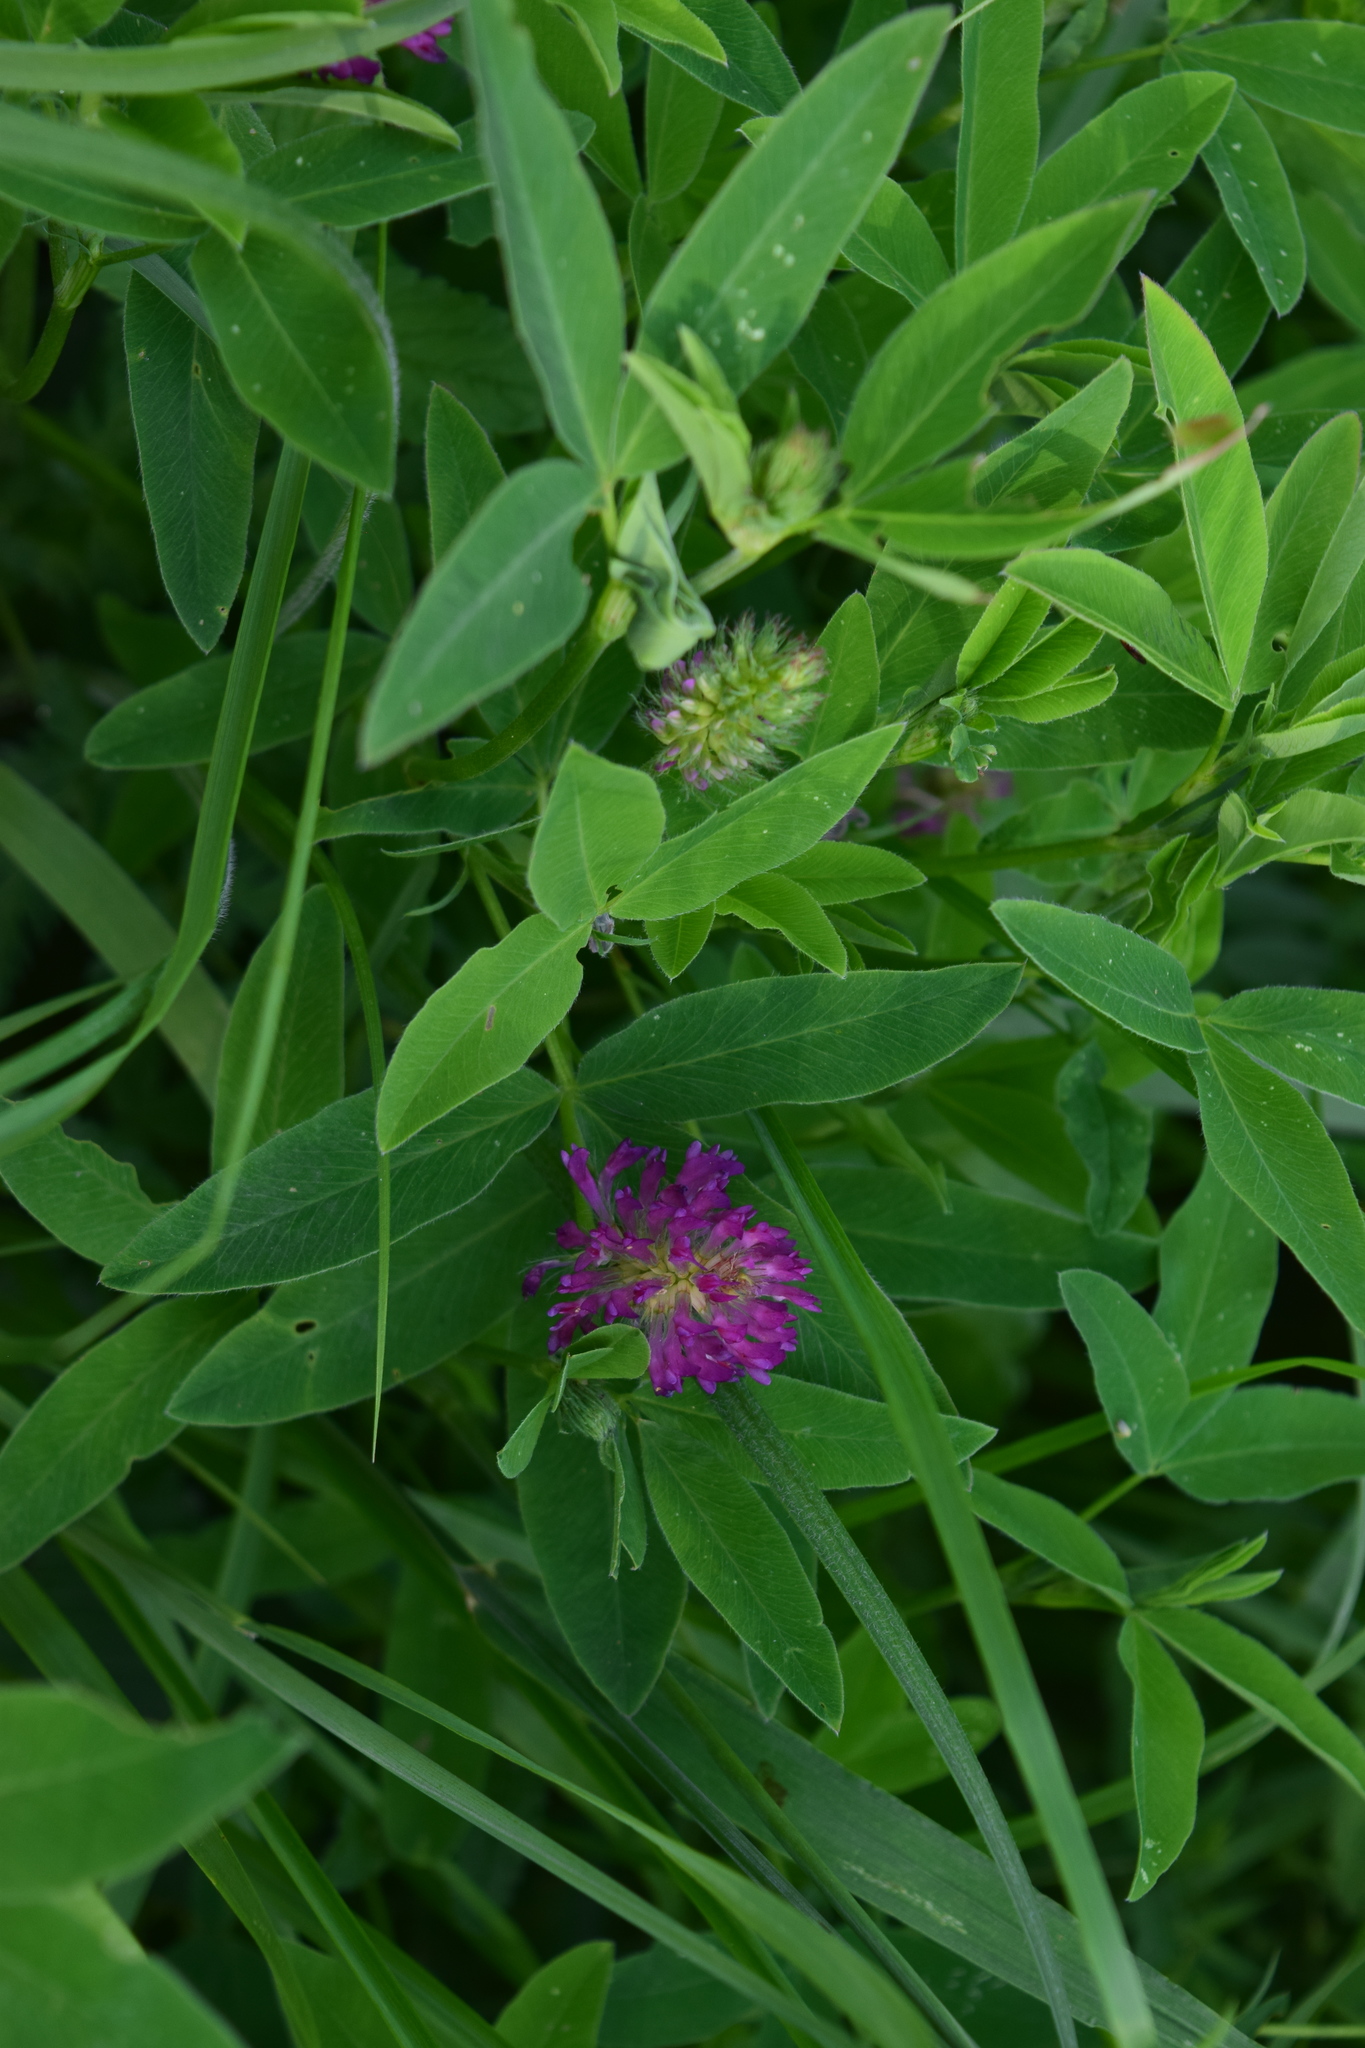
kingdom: Plantae
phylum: Tracheophyta
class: Magnoliopsida
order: Fabales
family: Fabaceae
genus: Trifolium
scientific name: Trifolium medium
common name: Zigzag clover
